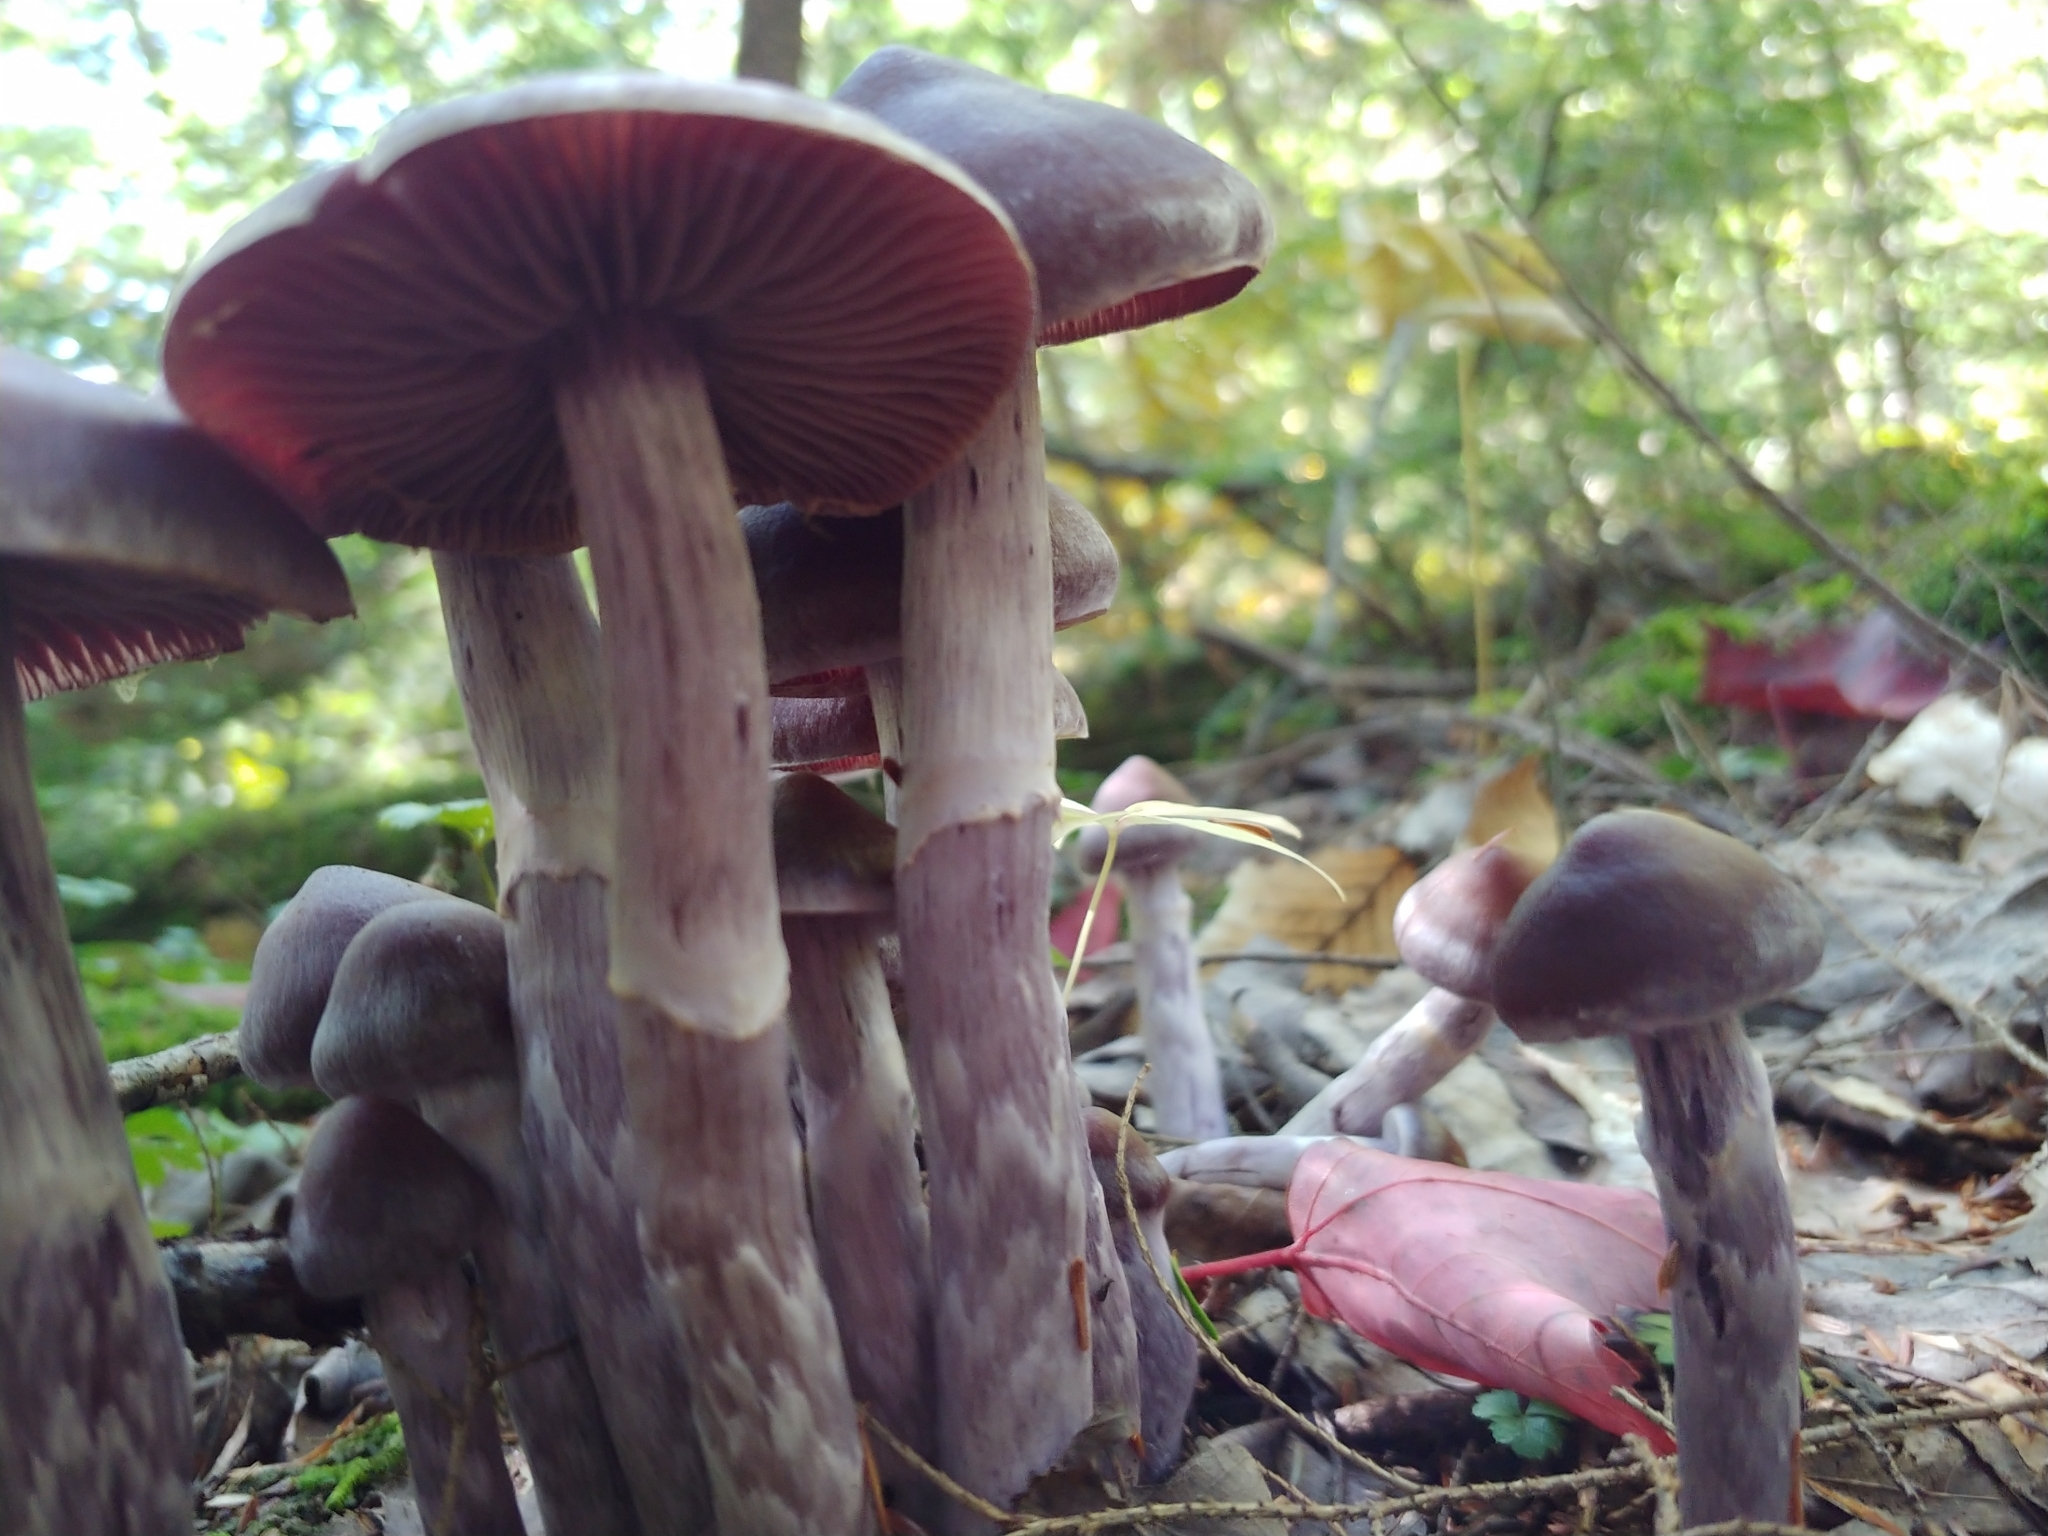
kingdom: Fungi
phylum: Basidiomycota
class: Agaricomycetes
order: Agaricales
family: Cortinariaceae
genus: Cortinarius
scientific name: Cortinarius evernius
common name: Silky webcap
